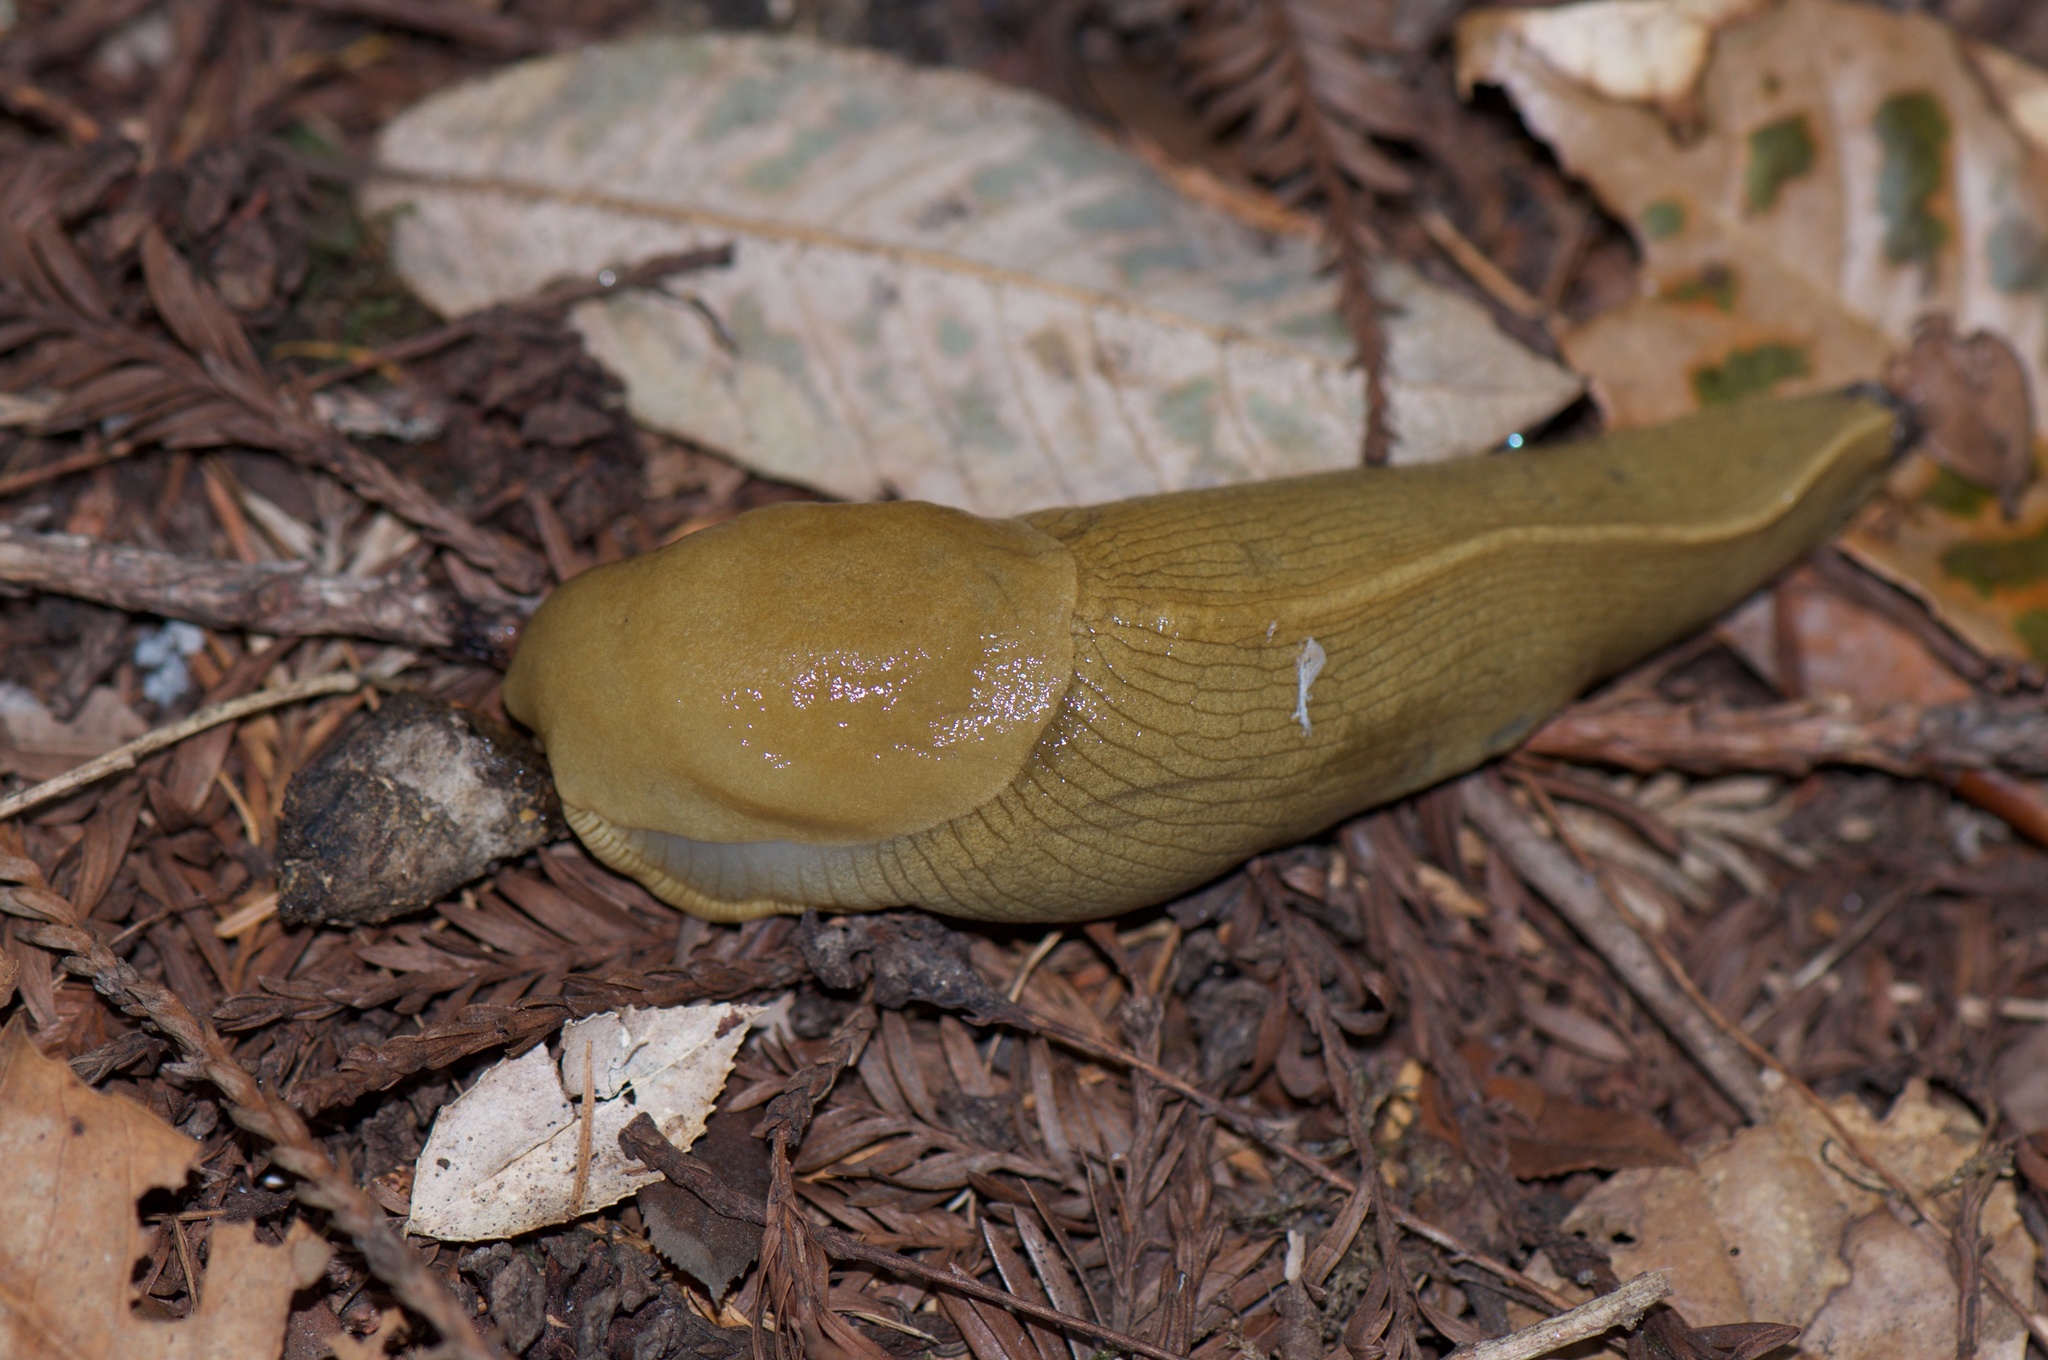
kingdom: Animalia
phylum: Mollusca
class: Gastropoda
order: Stylommatophora
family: Ariolimacidae
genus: Ariolimax
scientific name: Ariolimax columbianus
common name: Pacific banana slug
